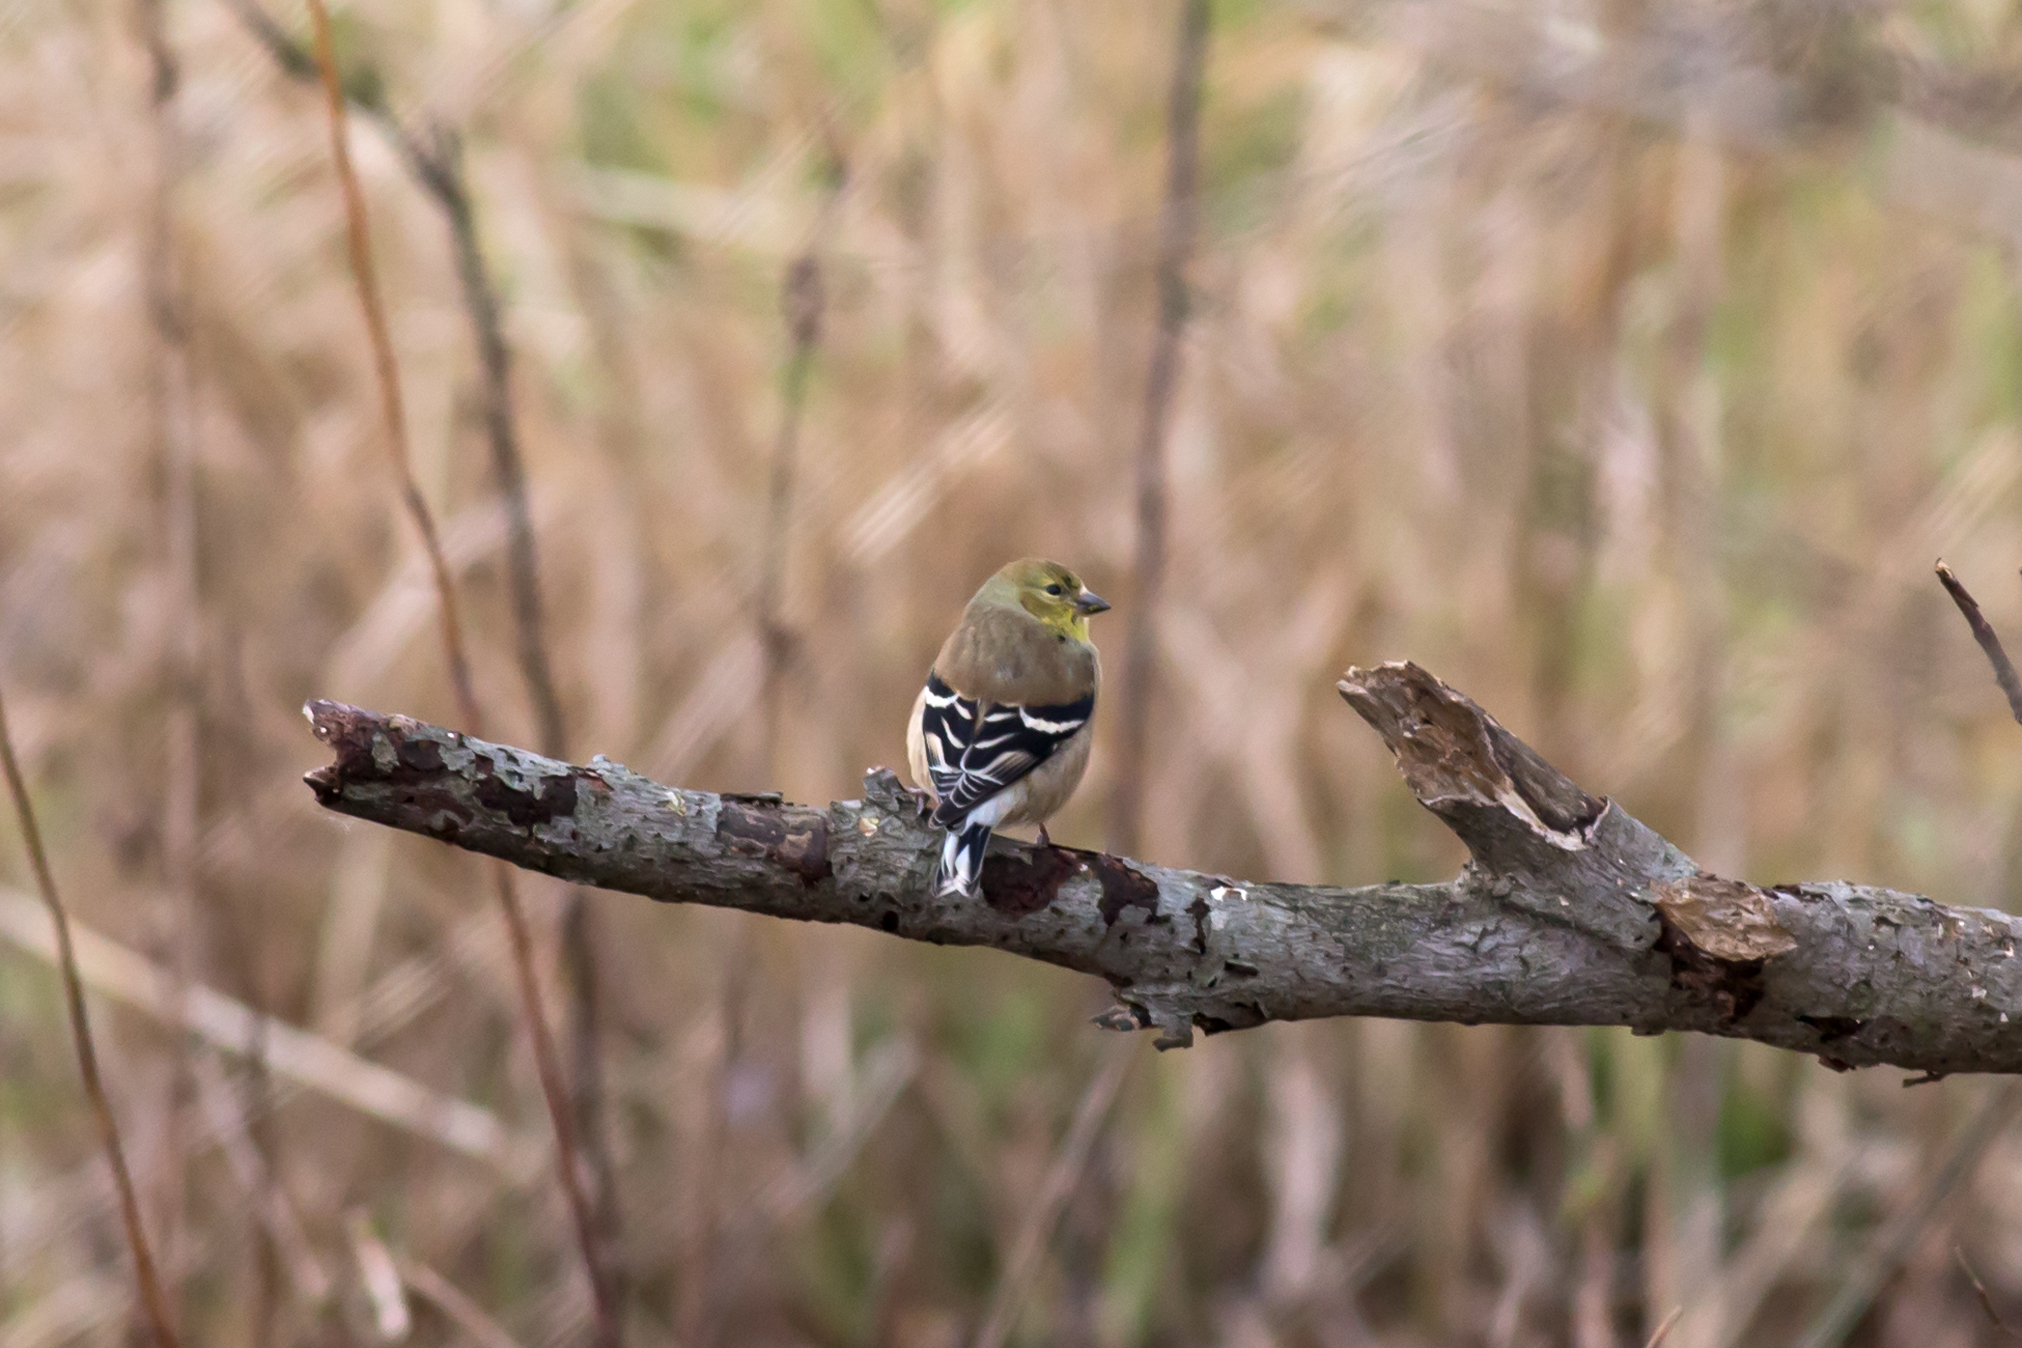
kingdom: Animalia
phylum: Chordata
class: Aves
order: Passeriformes
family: Fringillidae
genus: Spinus
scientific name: Spinus tristis
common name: American goldfinch
